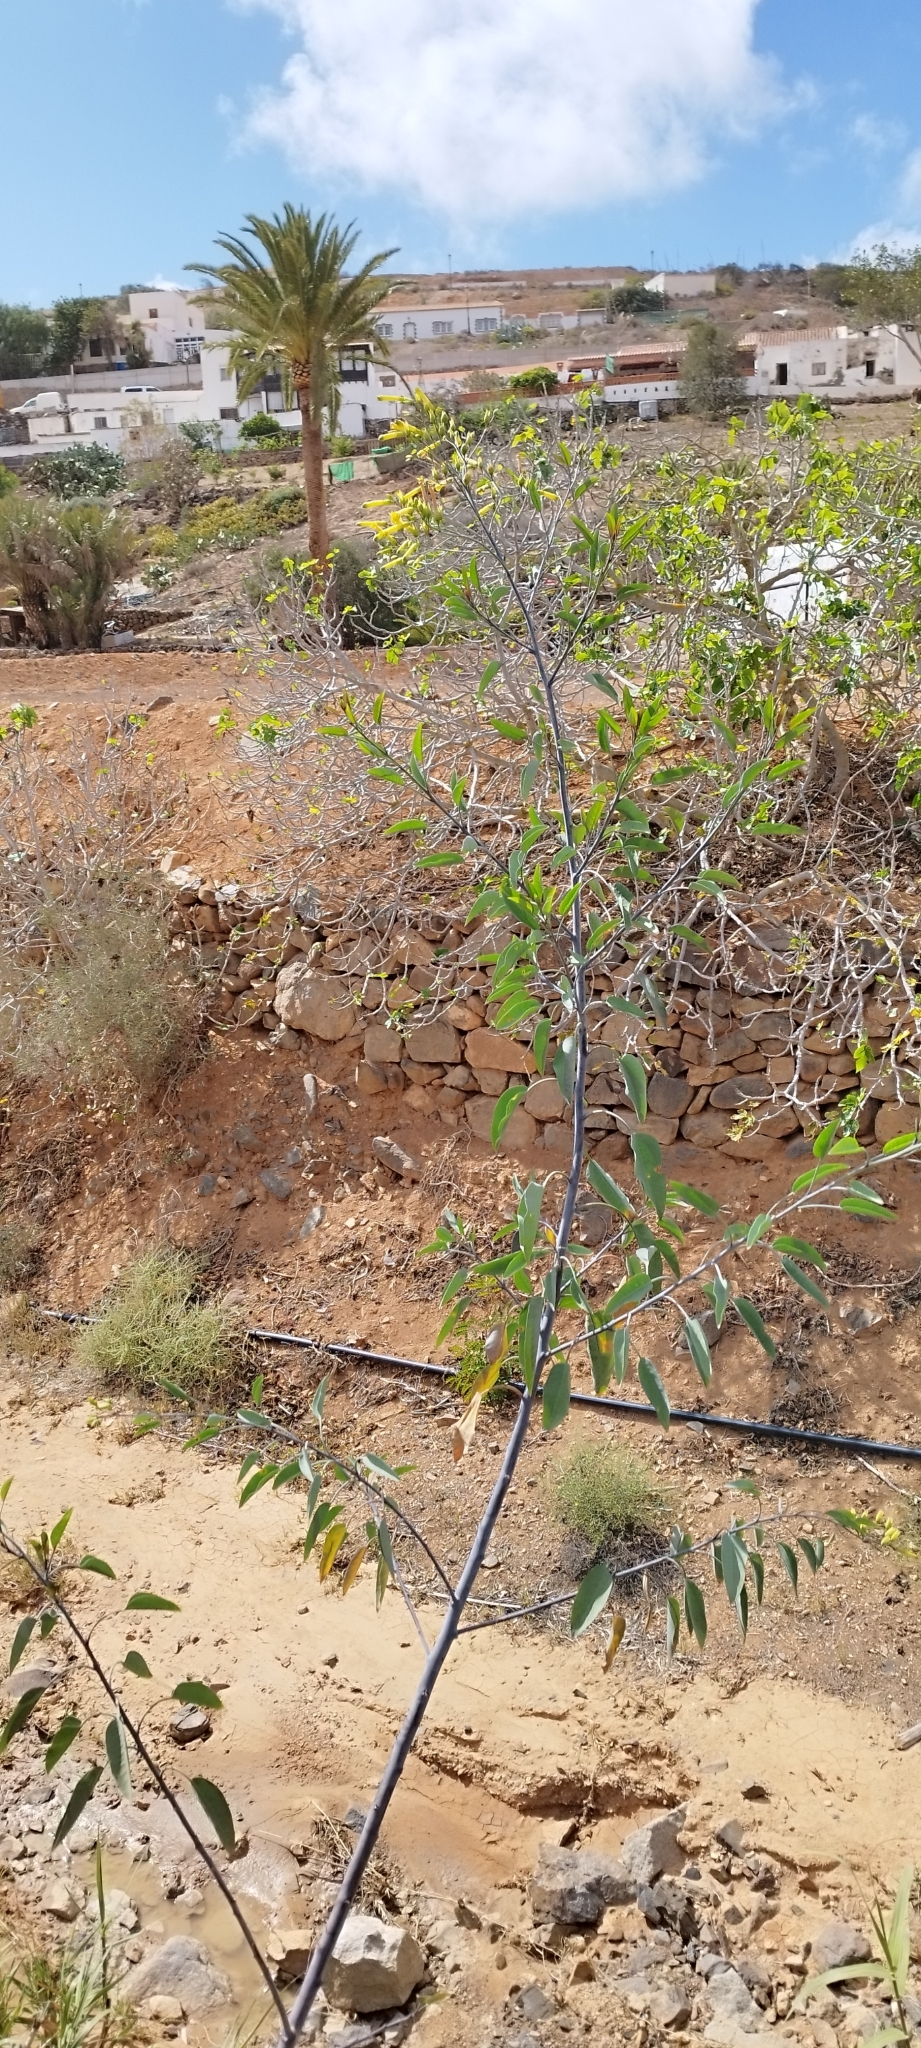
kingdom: Plantae
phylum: Tracheophyta
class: Magnoliopsida
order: Solanales
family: Solanaceae
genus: Nicotiana
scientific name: Nicotiana glauca
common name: Tree tobacco
